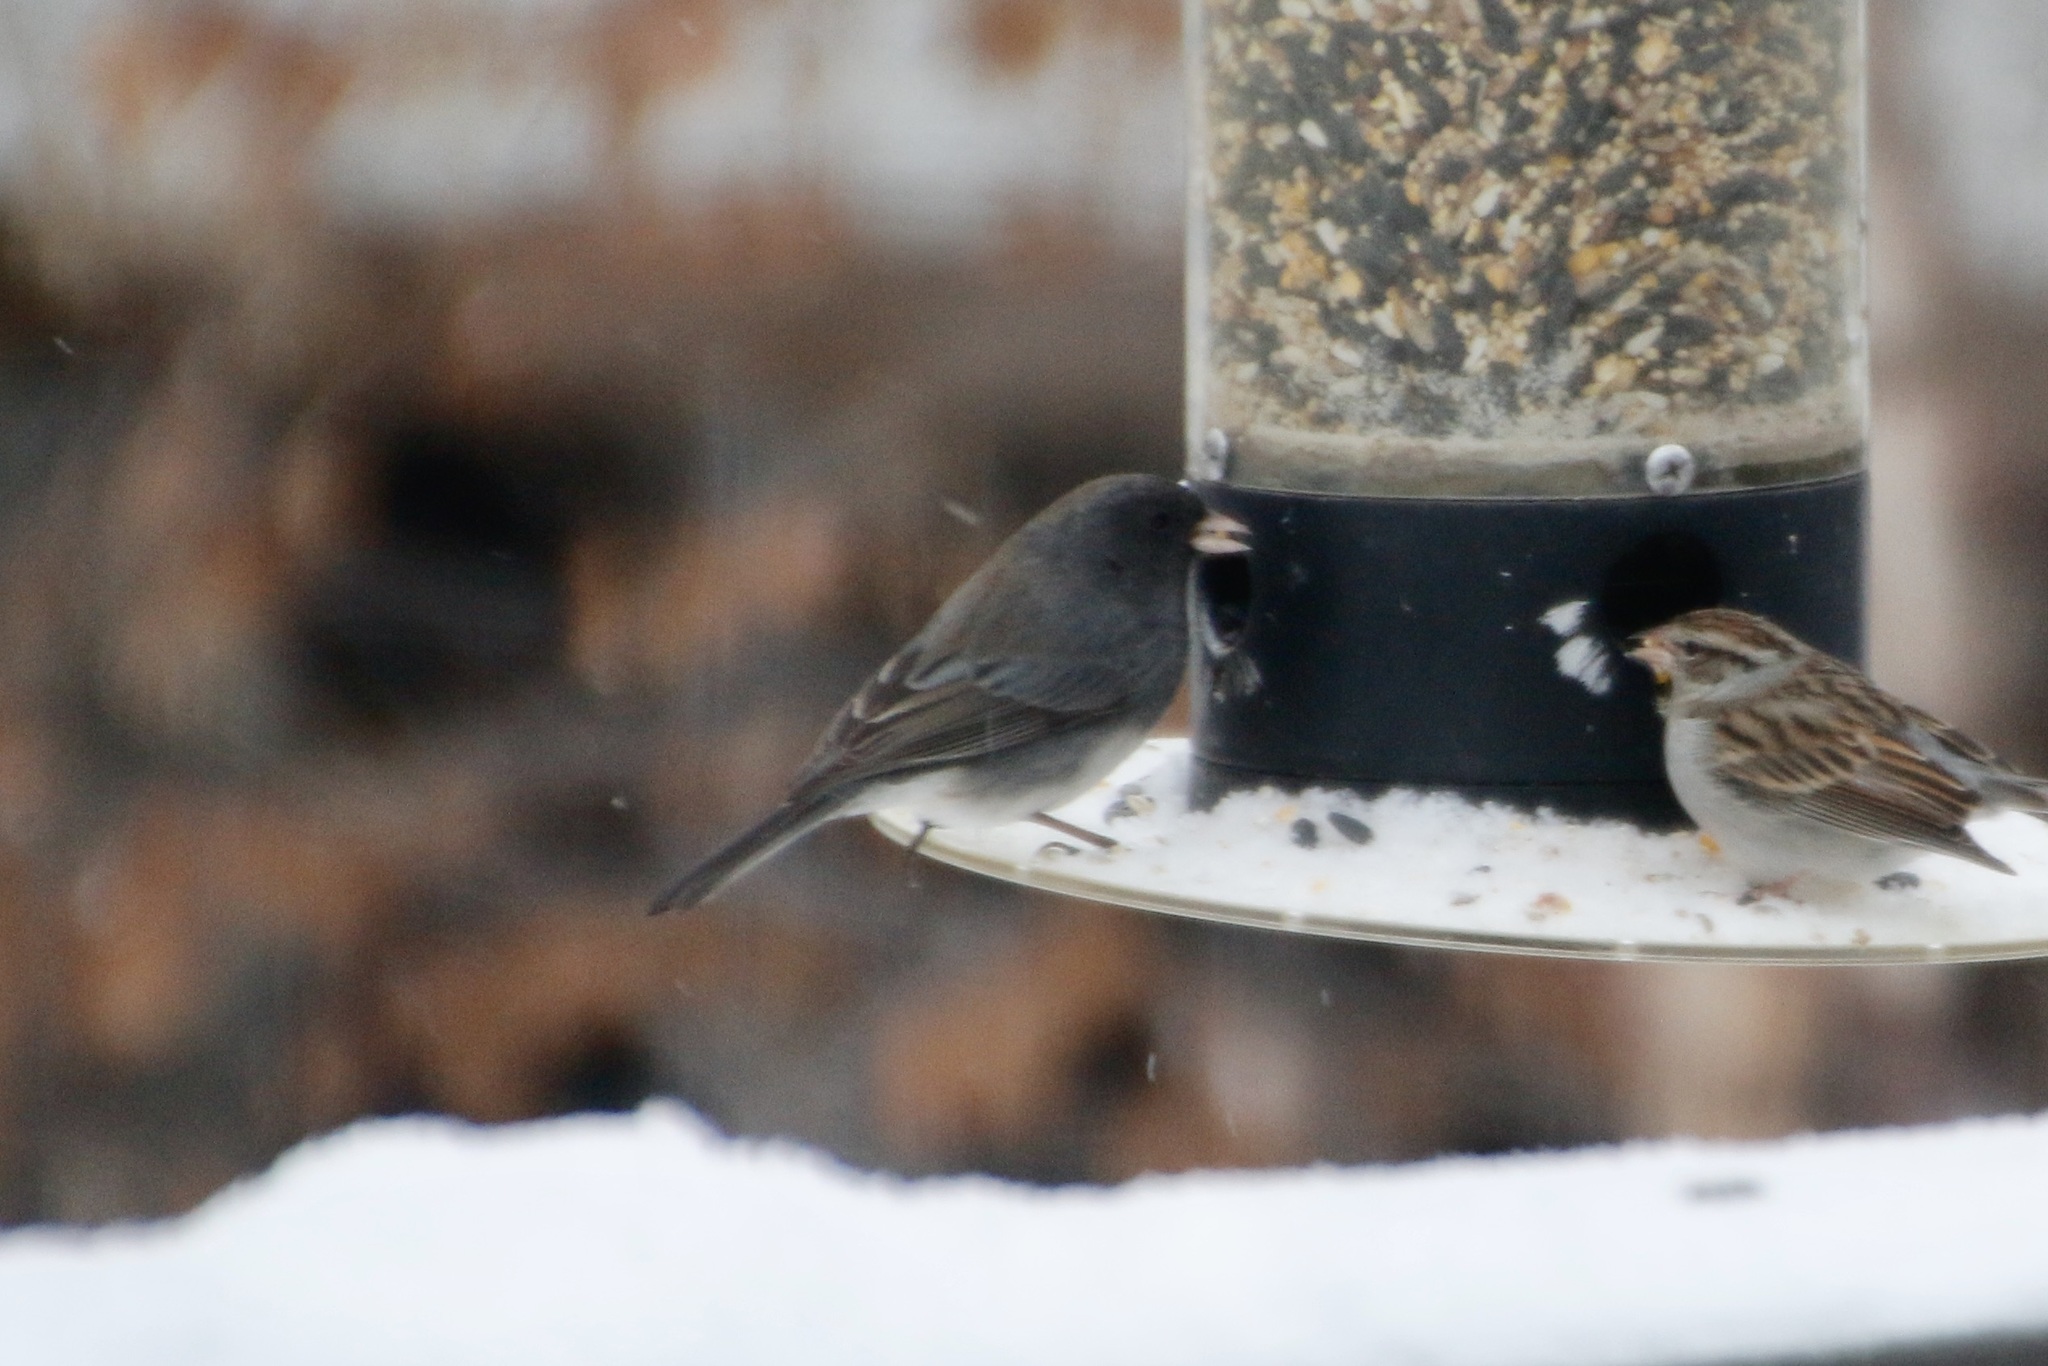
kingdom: Animalia
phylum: Chordata
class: Aves
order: Passeriformes
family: Passerellidae
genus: Junco
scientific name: Junco hyemalis
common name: Dark-eyed junco
